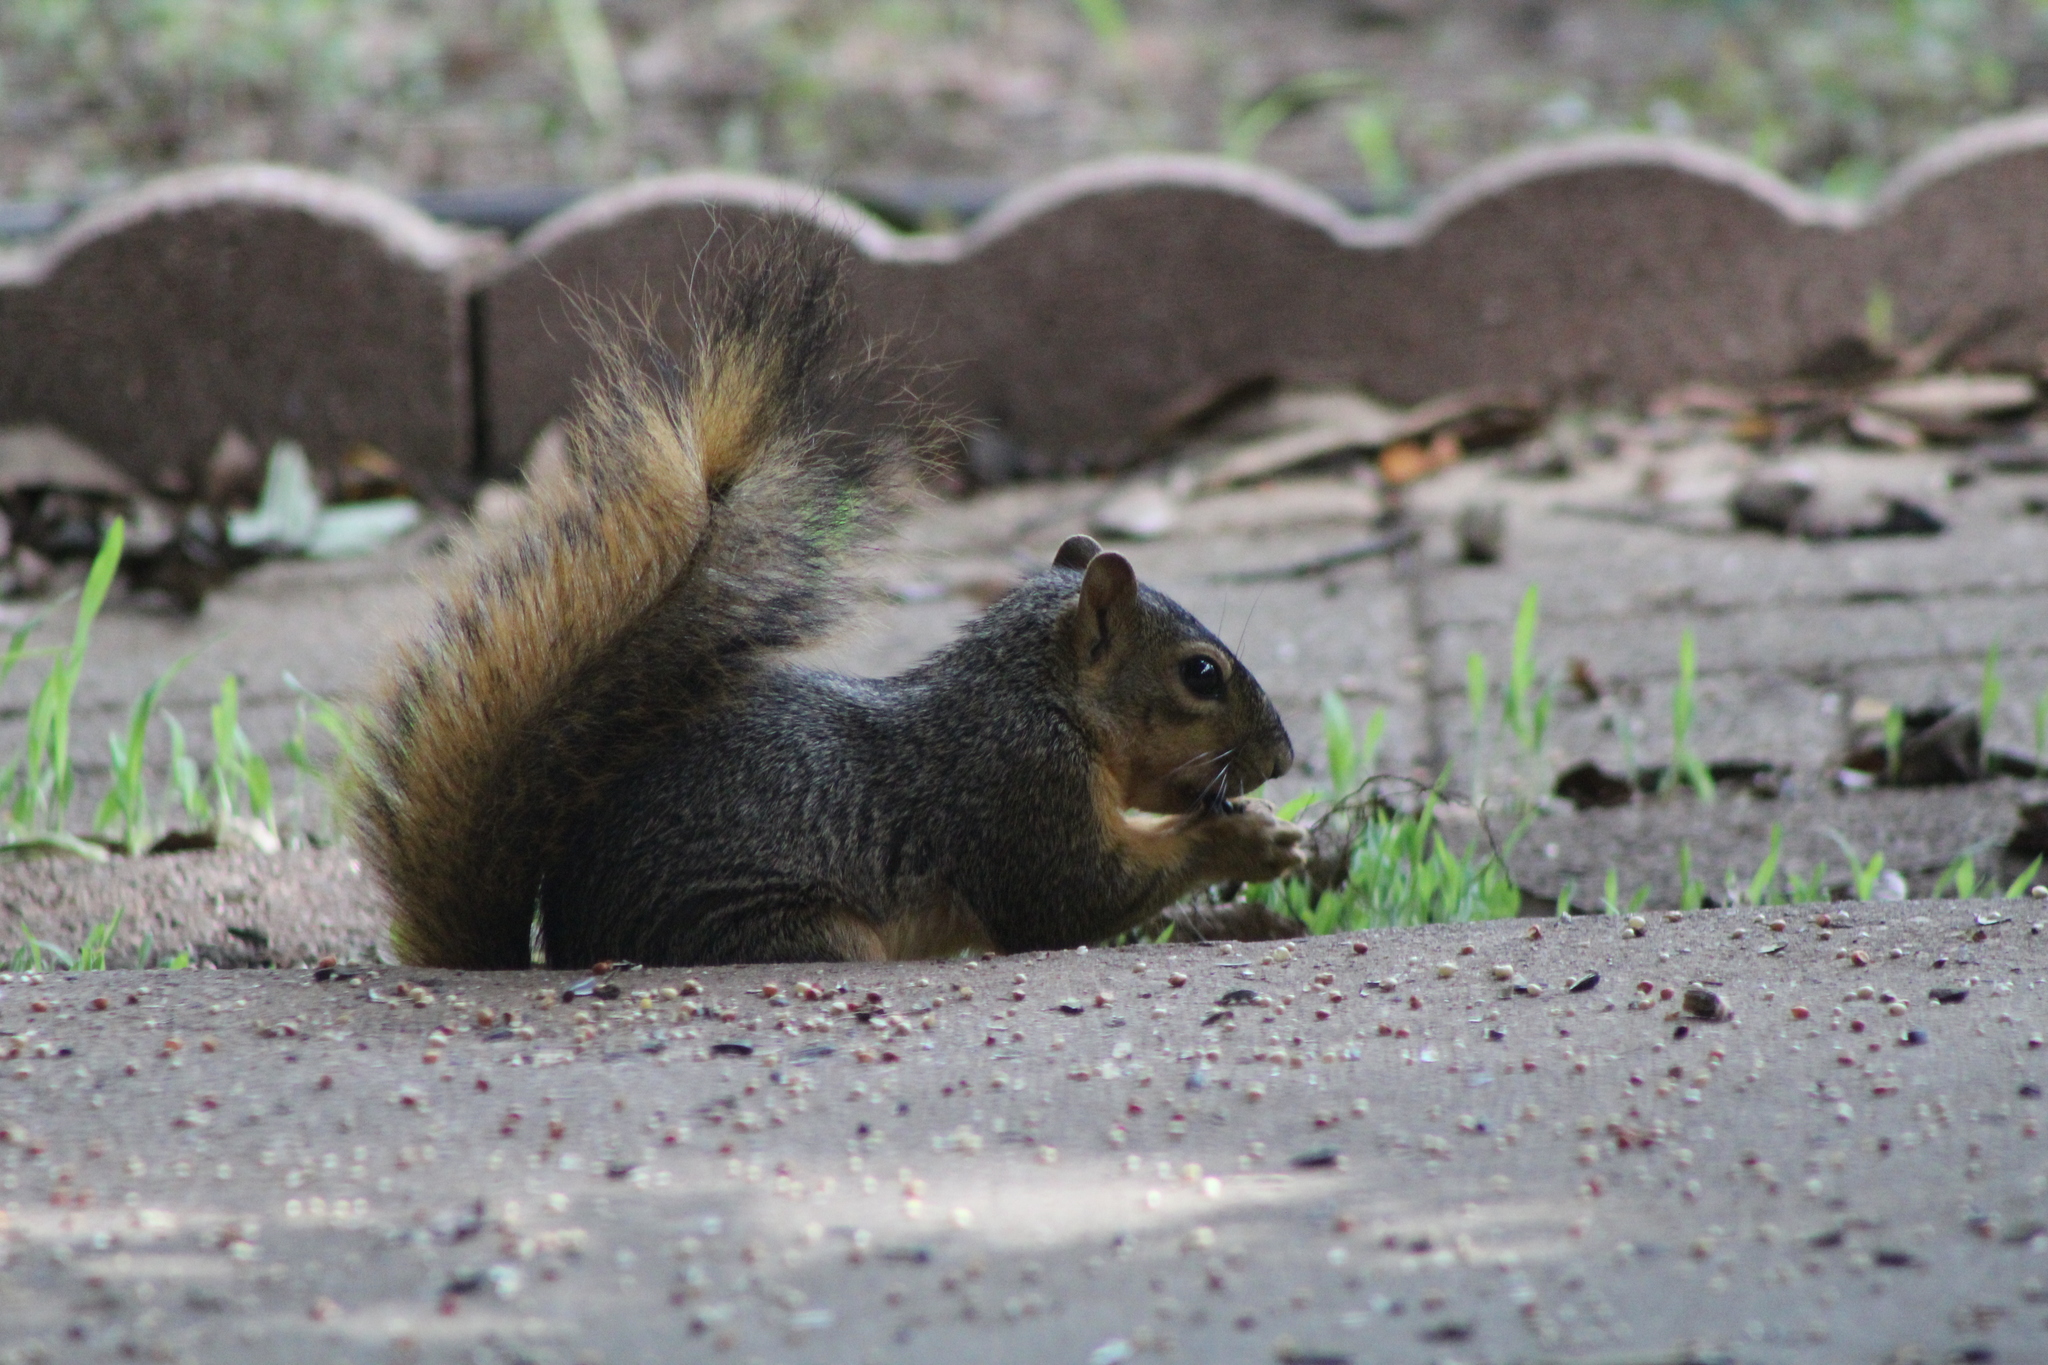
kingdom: Animalia
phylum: Chordata
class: Mammalia
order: Rodentia
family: Sciuridae
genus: Sciurus
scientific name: Sciurus niger
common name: Fox squirrel
